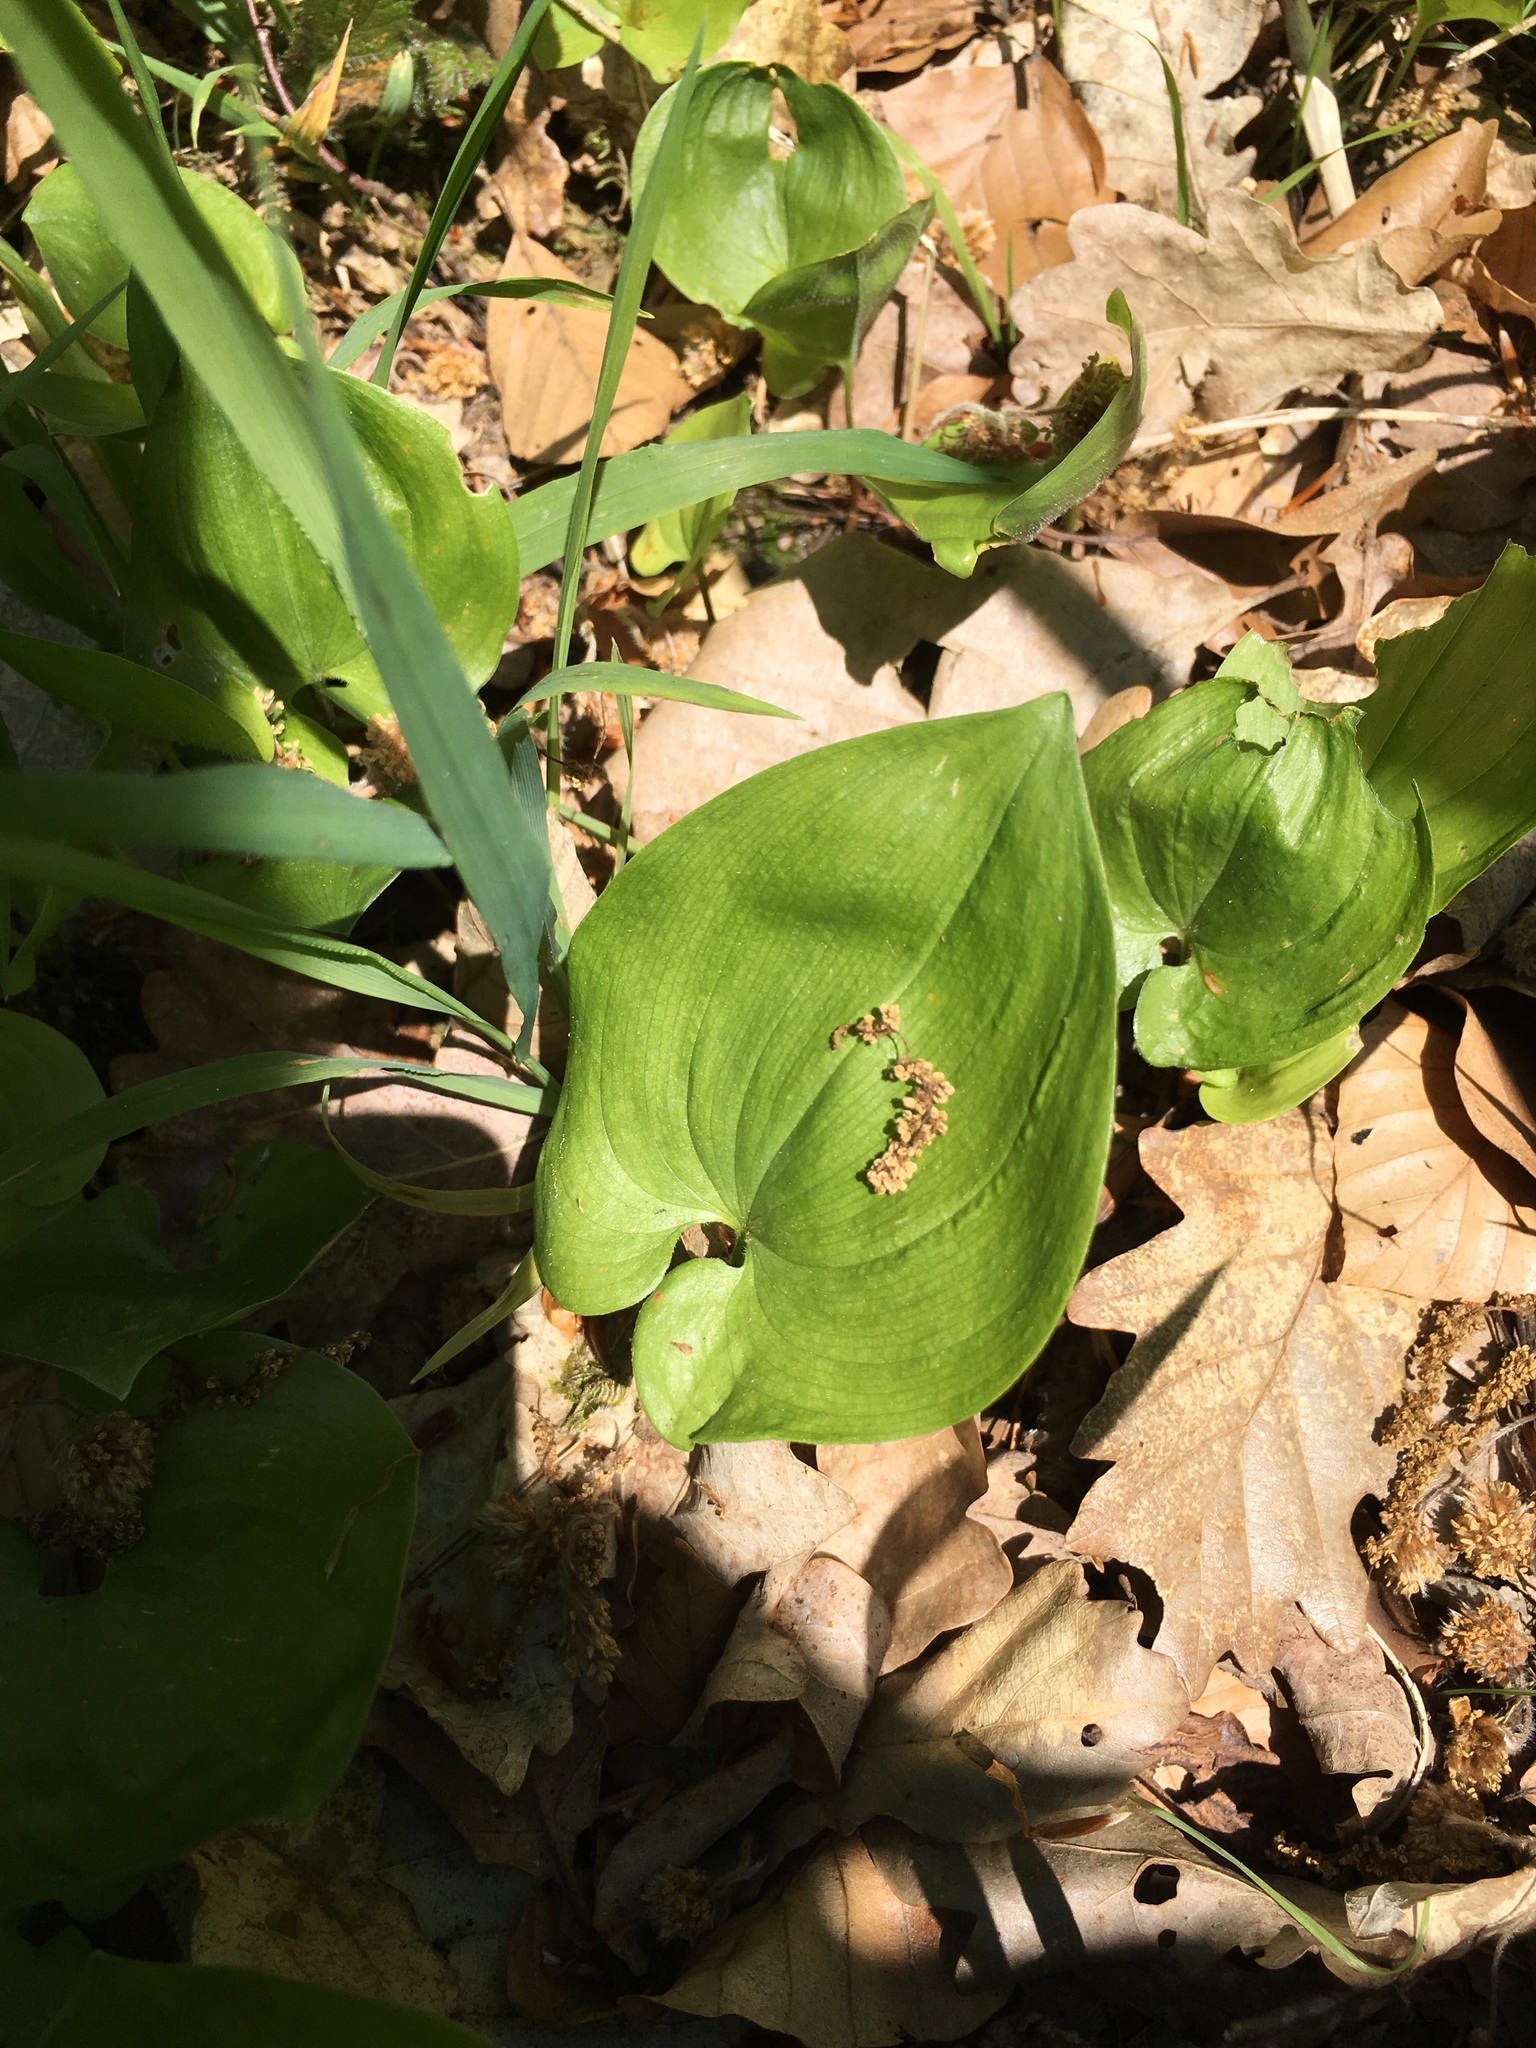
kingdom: Plantae
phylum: Tracheophyta
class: Liliopsida
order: Asparagales
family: Asparagaceae
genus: Maianthemum
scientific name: Maianthemum bifolium
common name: May lily
